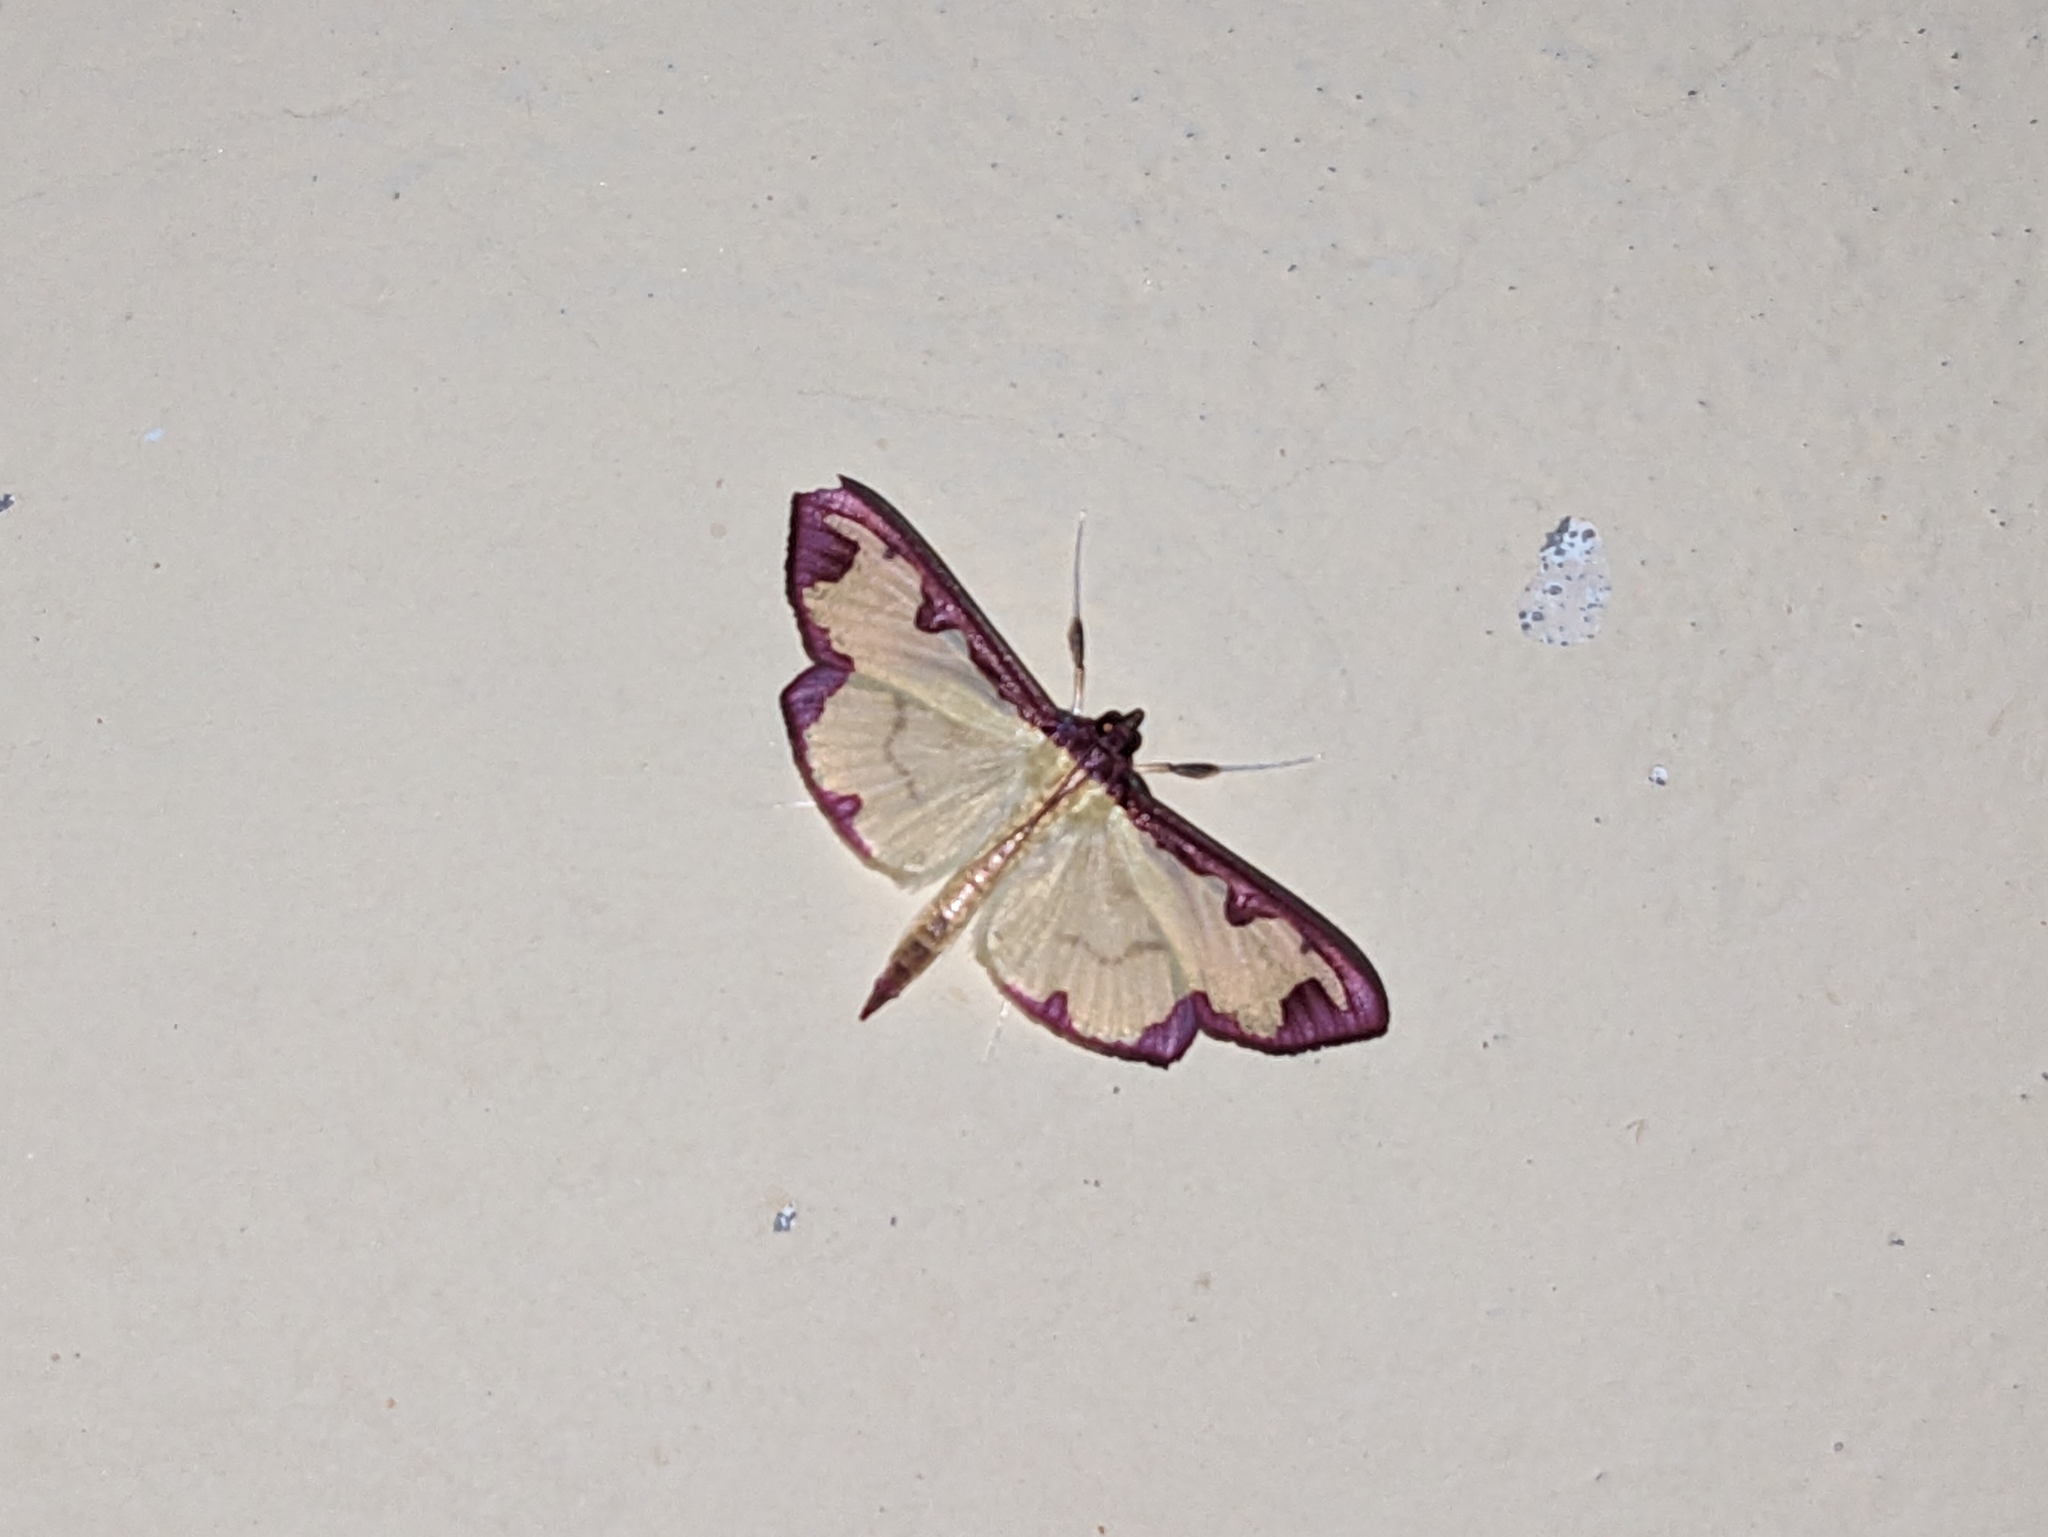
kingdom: Animalia
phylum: Arthropoda
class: Insecta
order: Lepidoptera
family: Crambidae
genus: Cadarena
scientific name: Cadarena pudoraria
